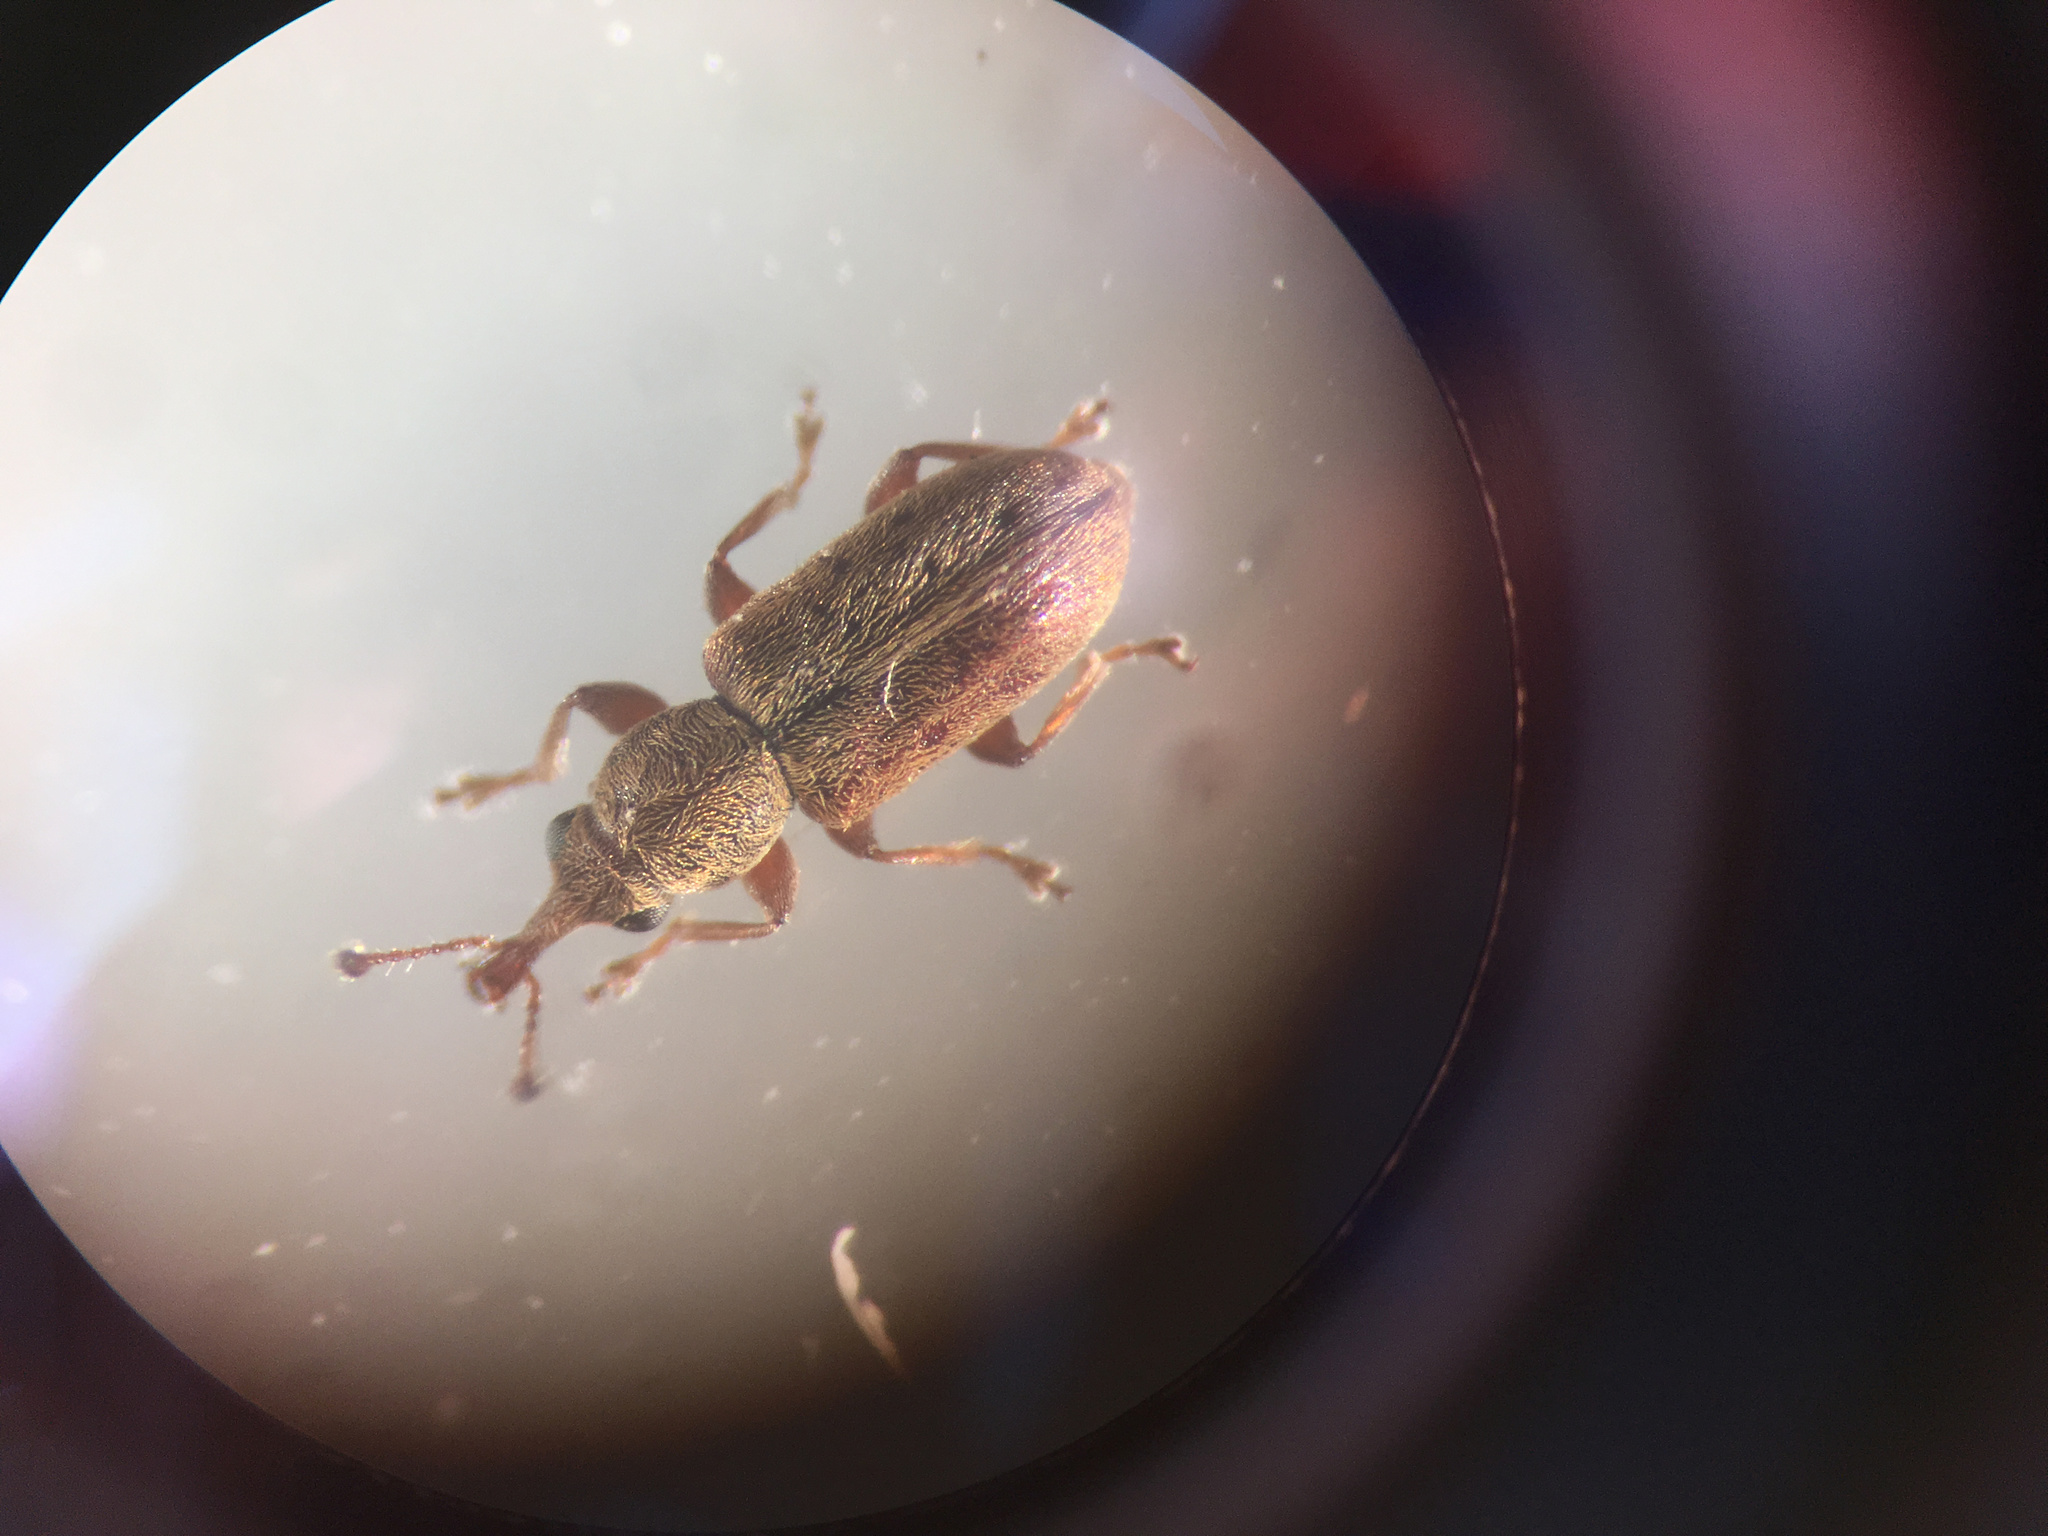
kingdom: Animalia
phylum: Arthropoda
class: Insecta
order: Coleoptera
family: Nemonychidae
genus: Rhinorhynchus
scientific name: Rhinorhynchus rufulus
